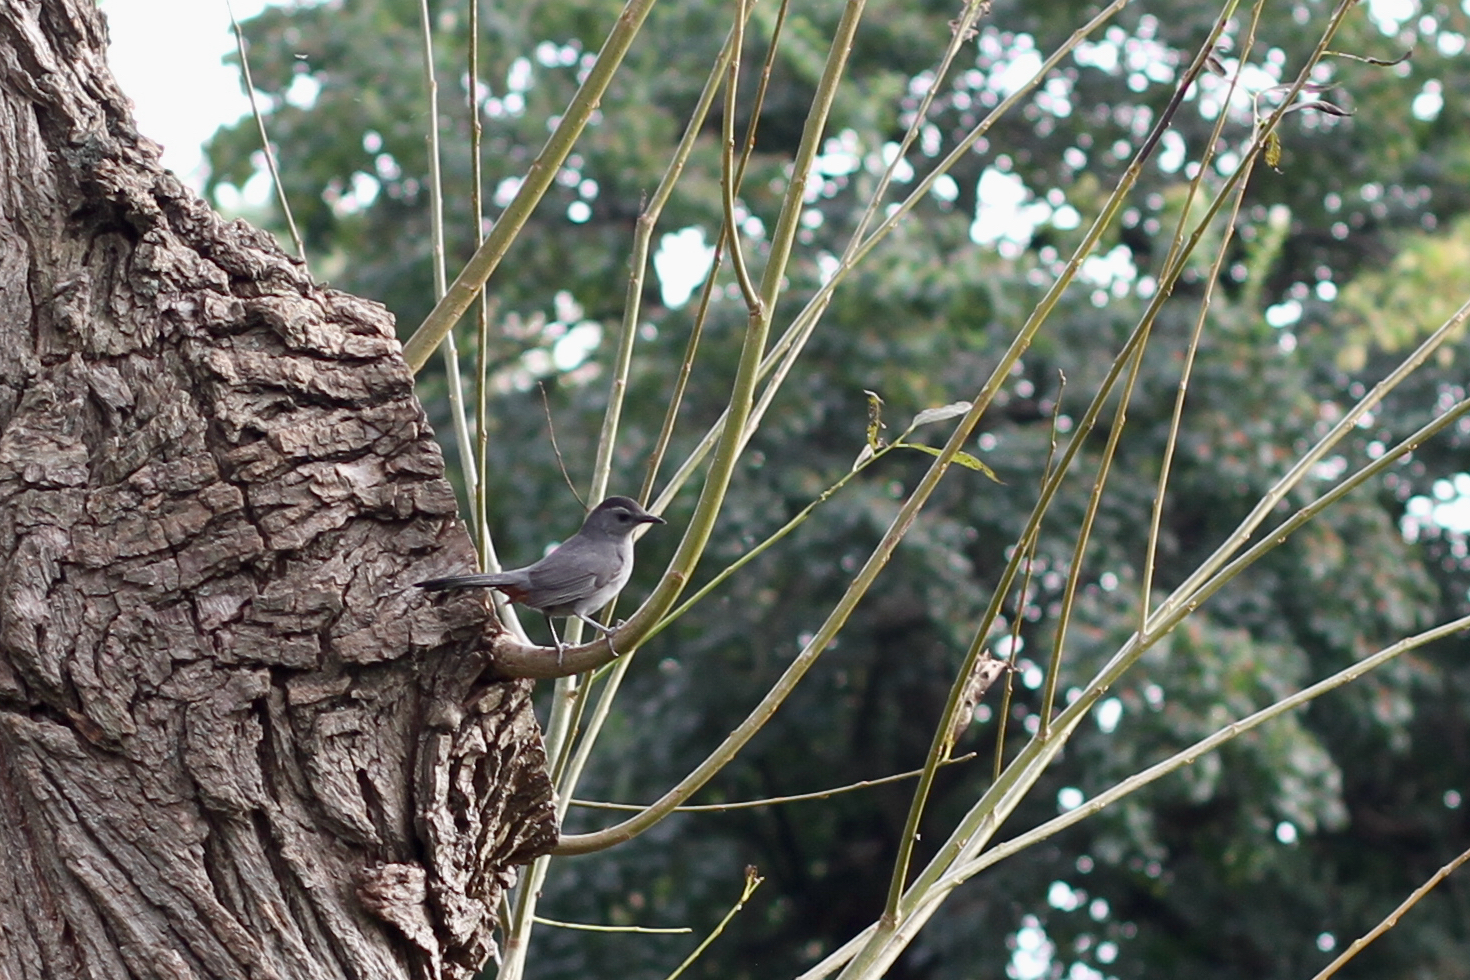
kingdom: Animalia
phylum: Chordata
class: Aves
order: Passeriformes
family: Mimidae
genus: Dumetella
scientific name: Dumetella carolinensis
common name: Gray catbird
